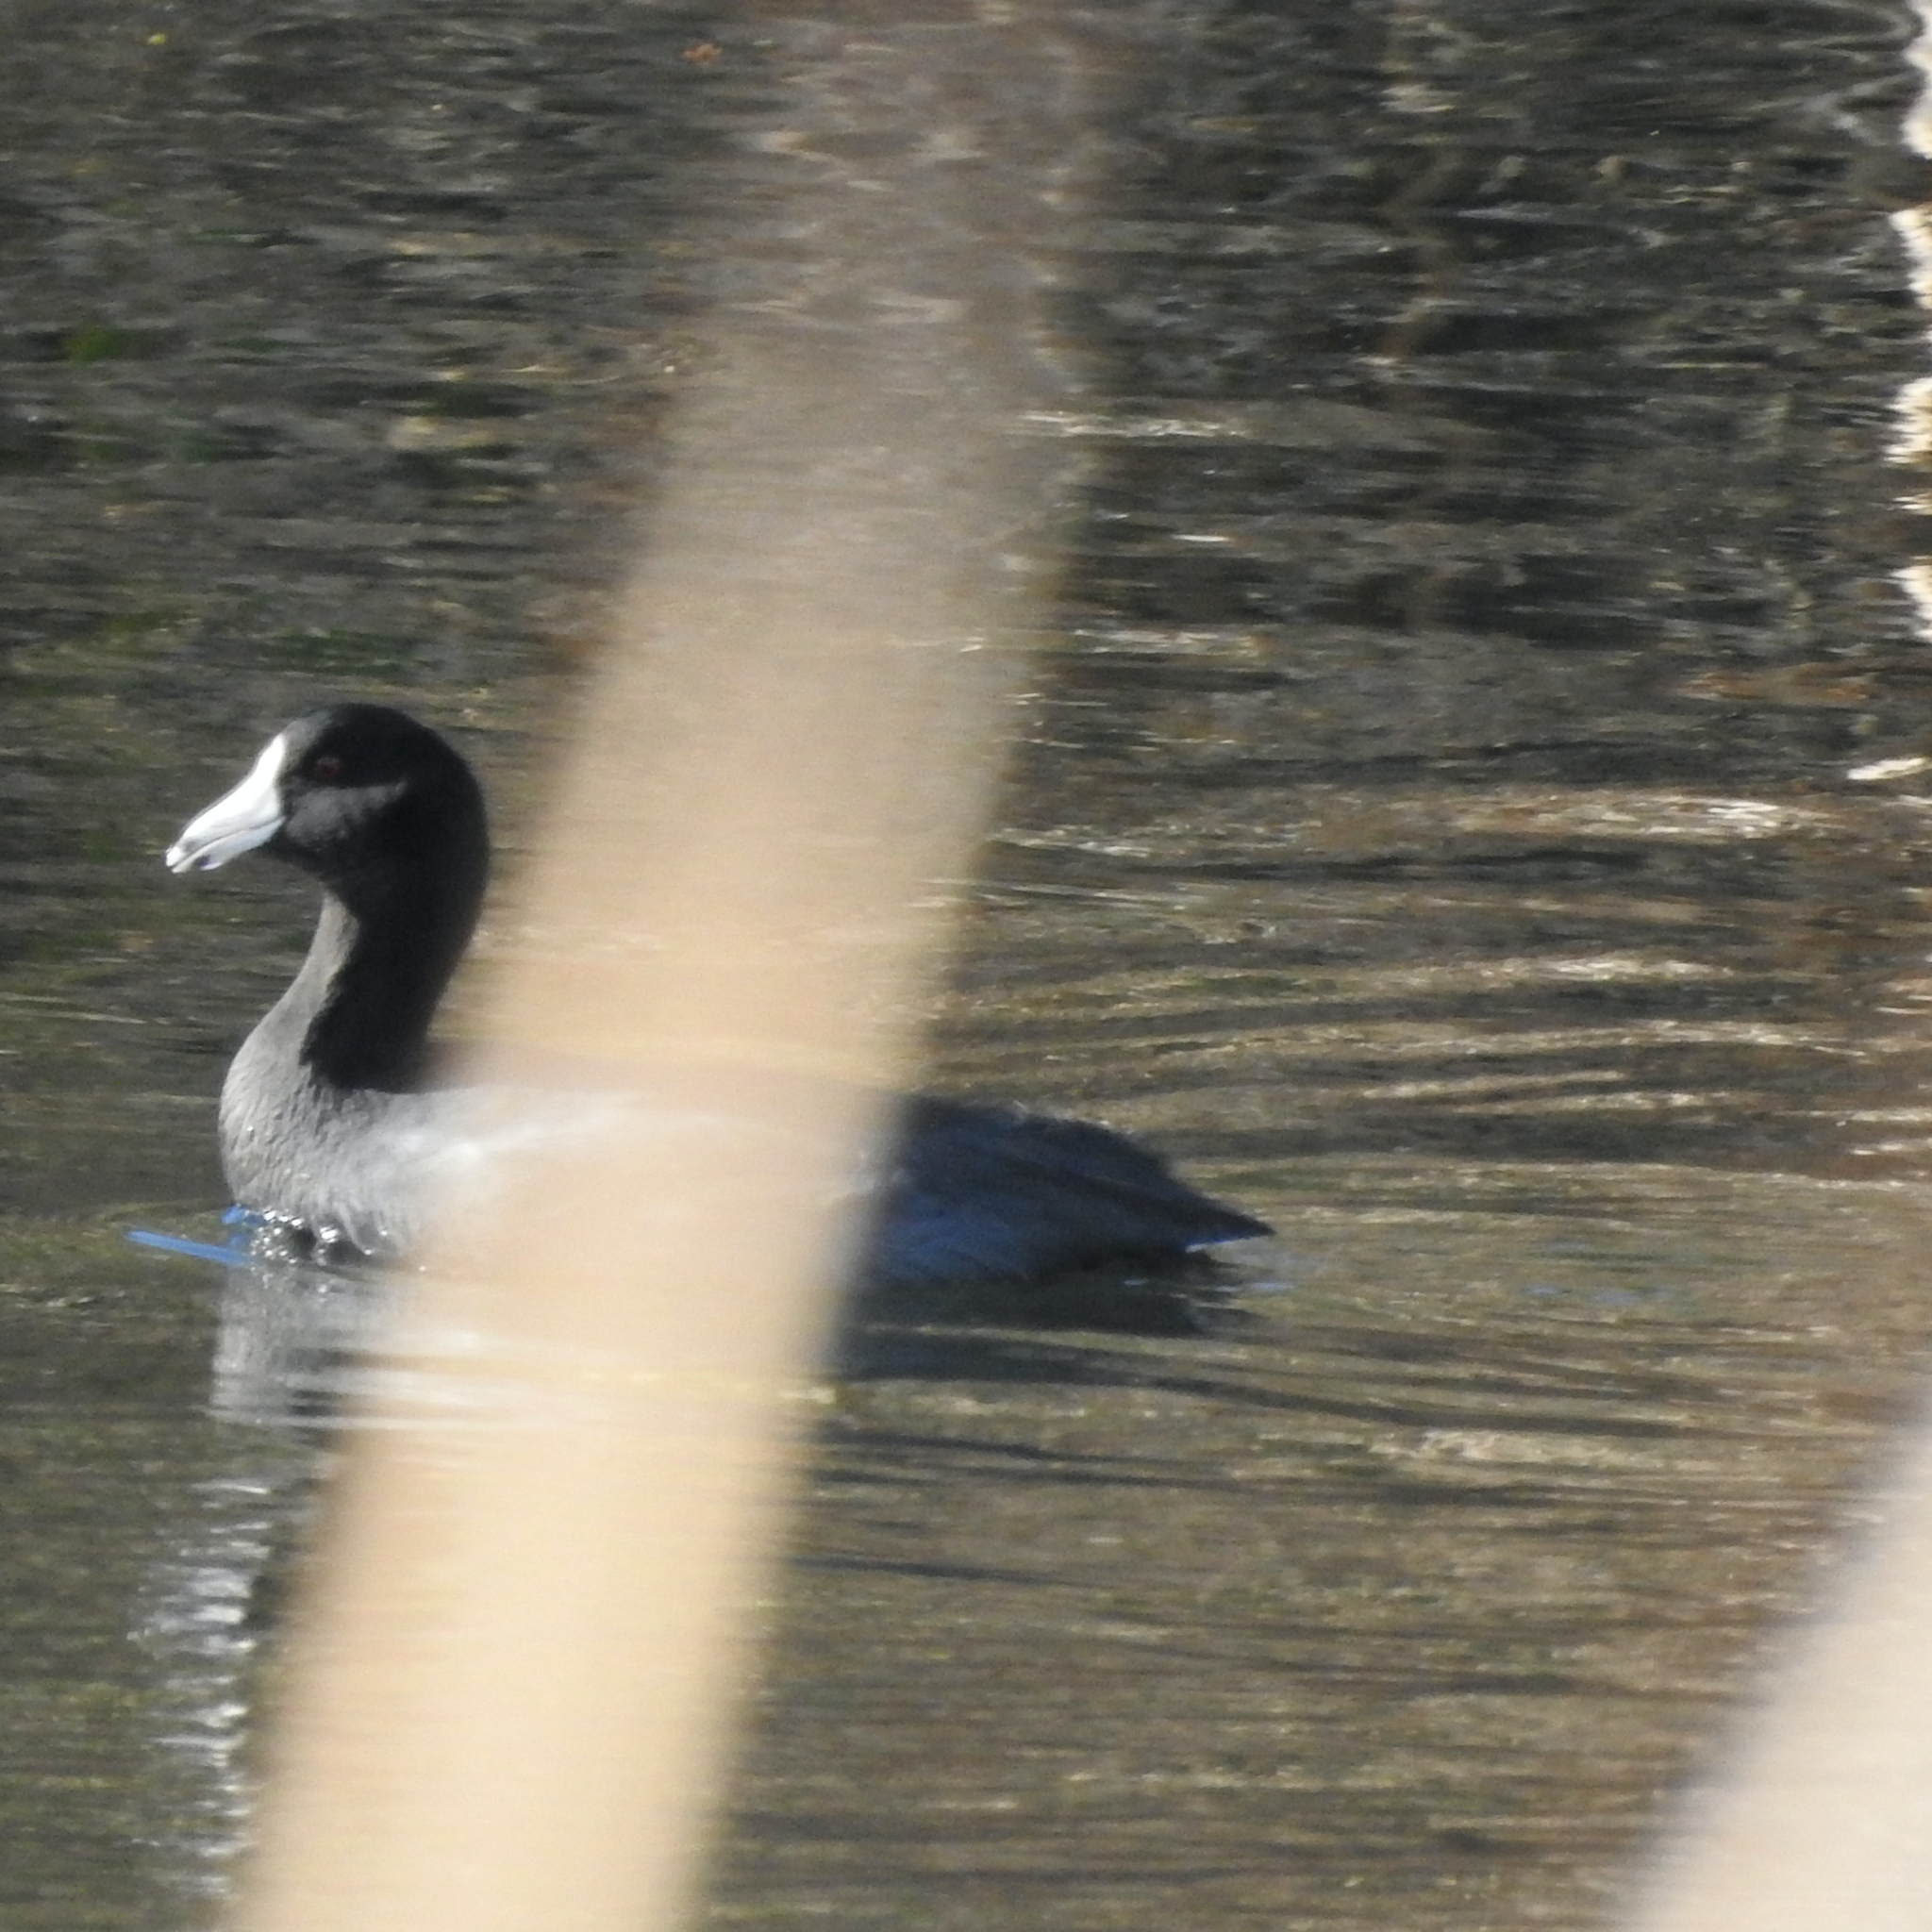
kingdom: Animalia
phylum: Chordata
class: Aves
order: Gruiformes
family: Rallidae
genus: Fulica
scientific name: Fulica americana
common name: American coot
